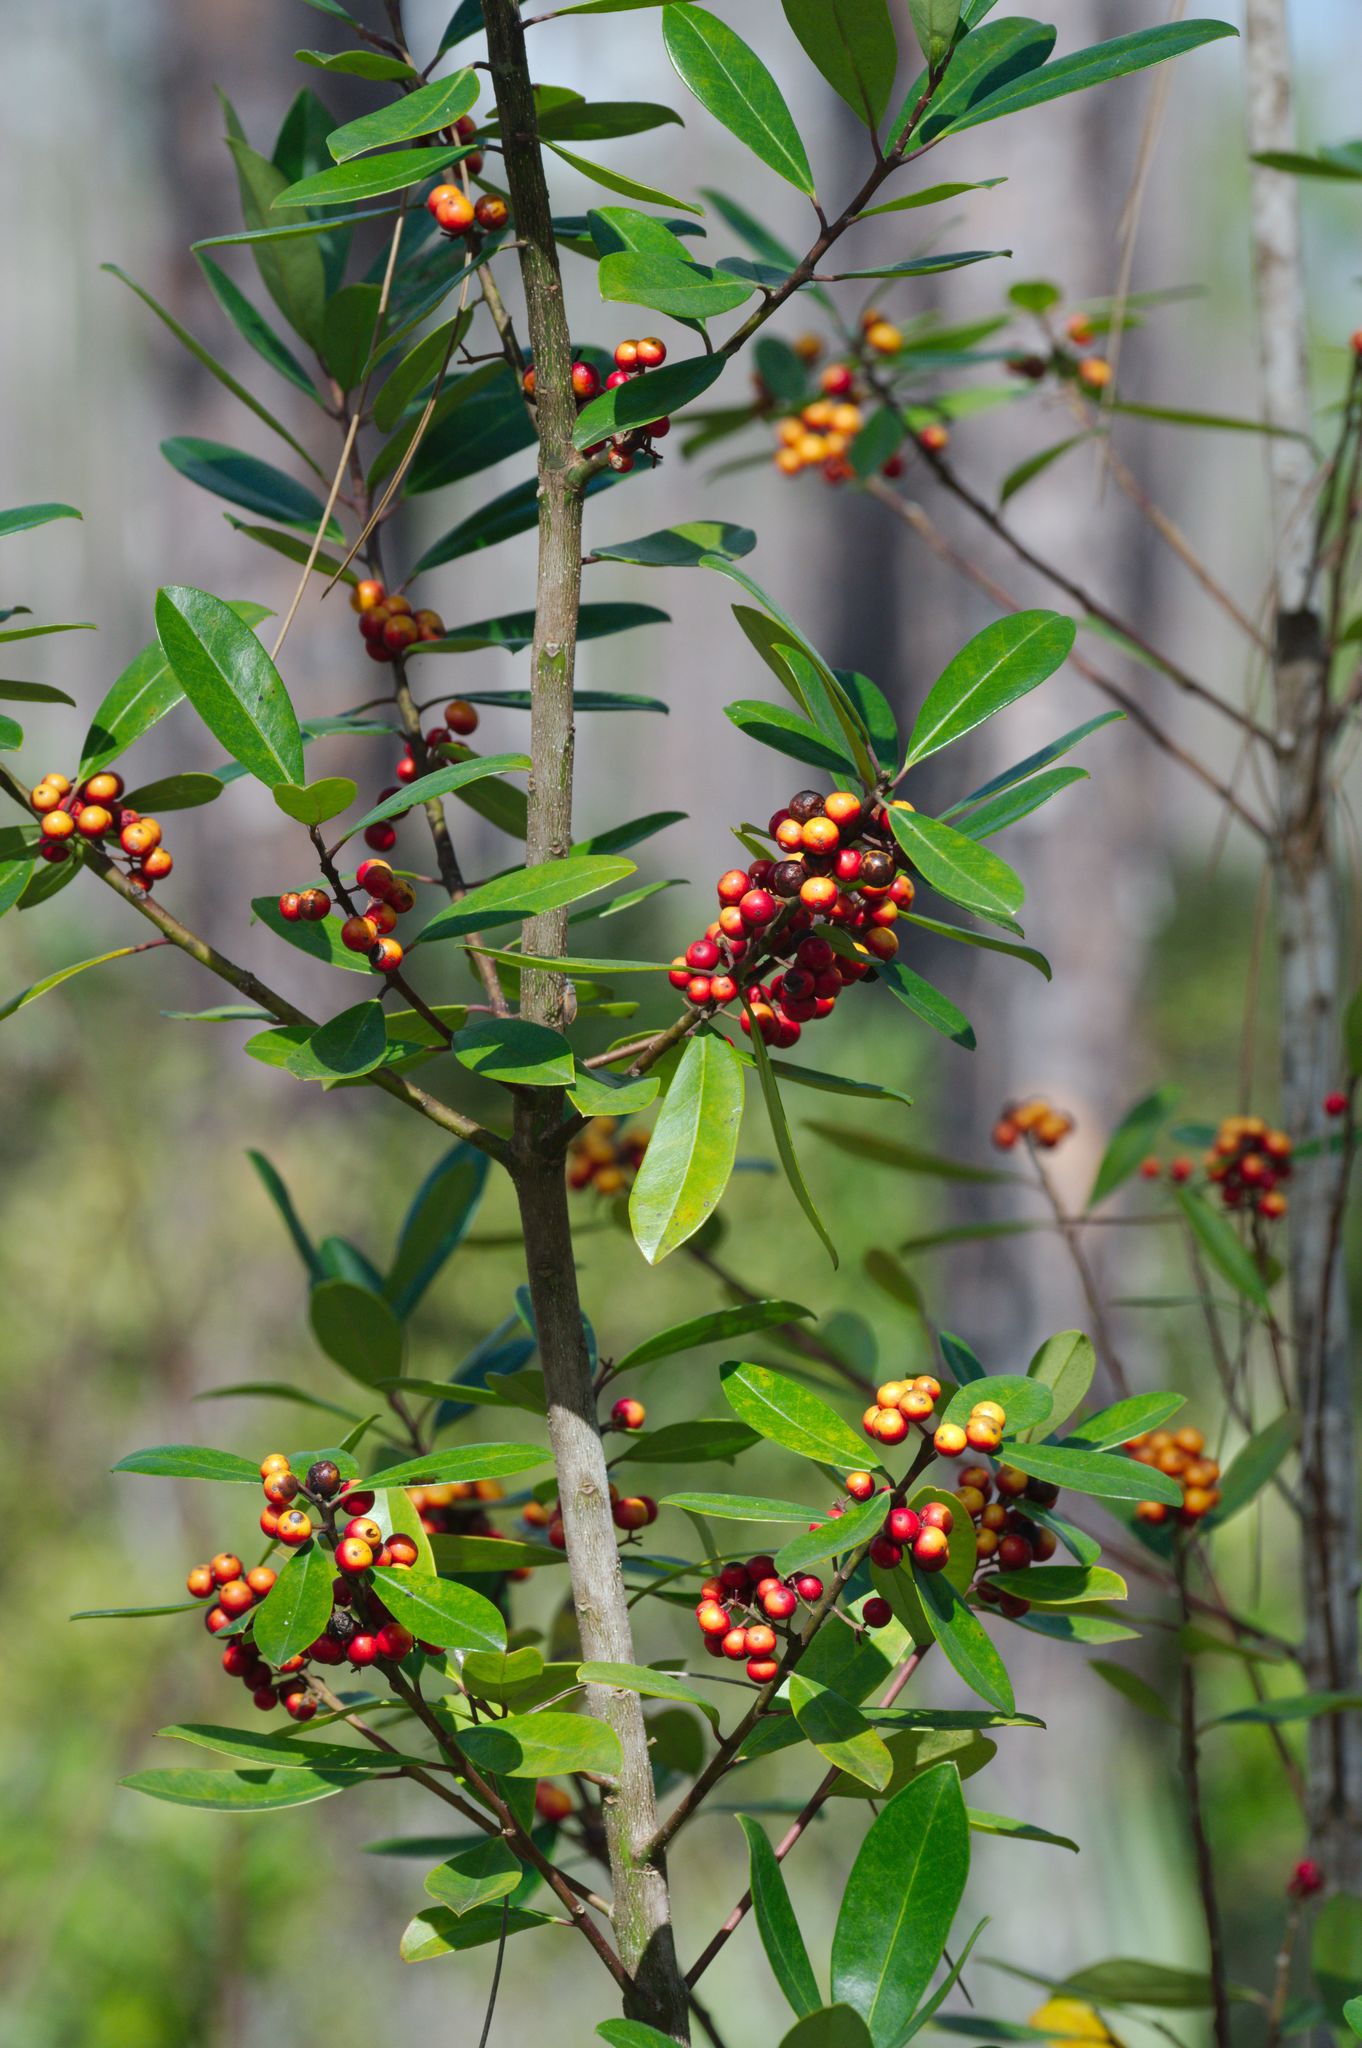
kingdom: Plantae
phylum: Tracheophyta
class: Magnoliopsida
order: Aquifoliales
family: Aquifoliaceae
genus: Ilex
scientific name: Ilex cassine
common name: Dahoon
